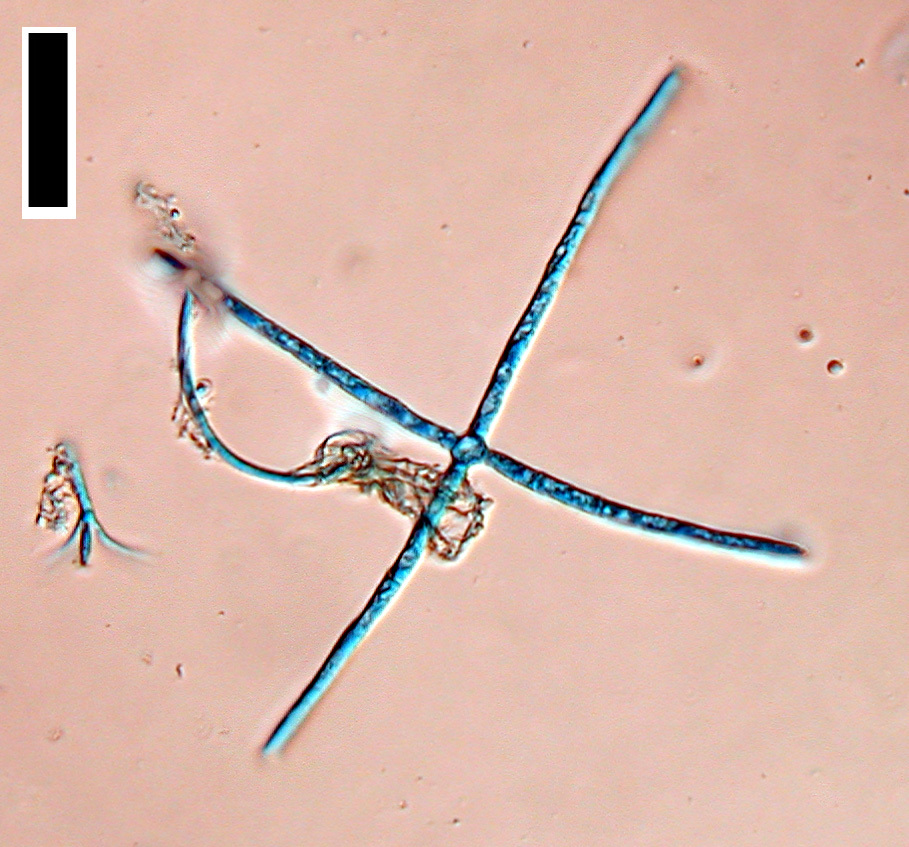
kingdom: Fungi
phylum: Ascomycota
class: Leotiomycetes
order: Helotiales
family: Discinellaceae
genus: Lemonniera
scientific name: Lemonniera centrosphaera
